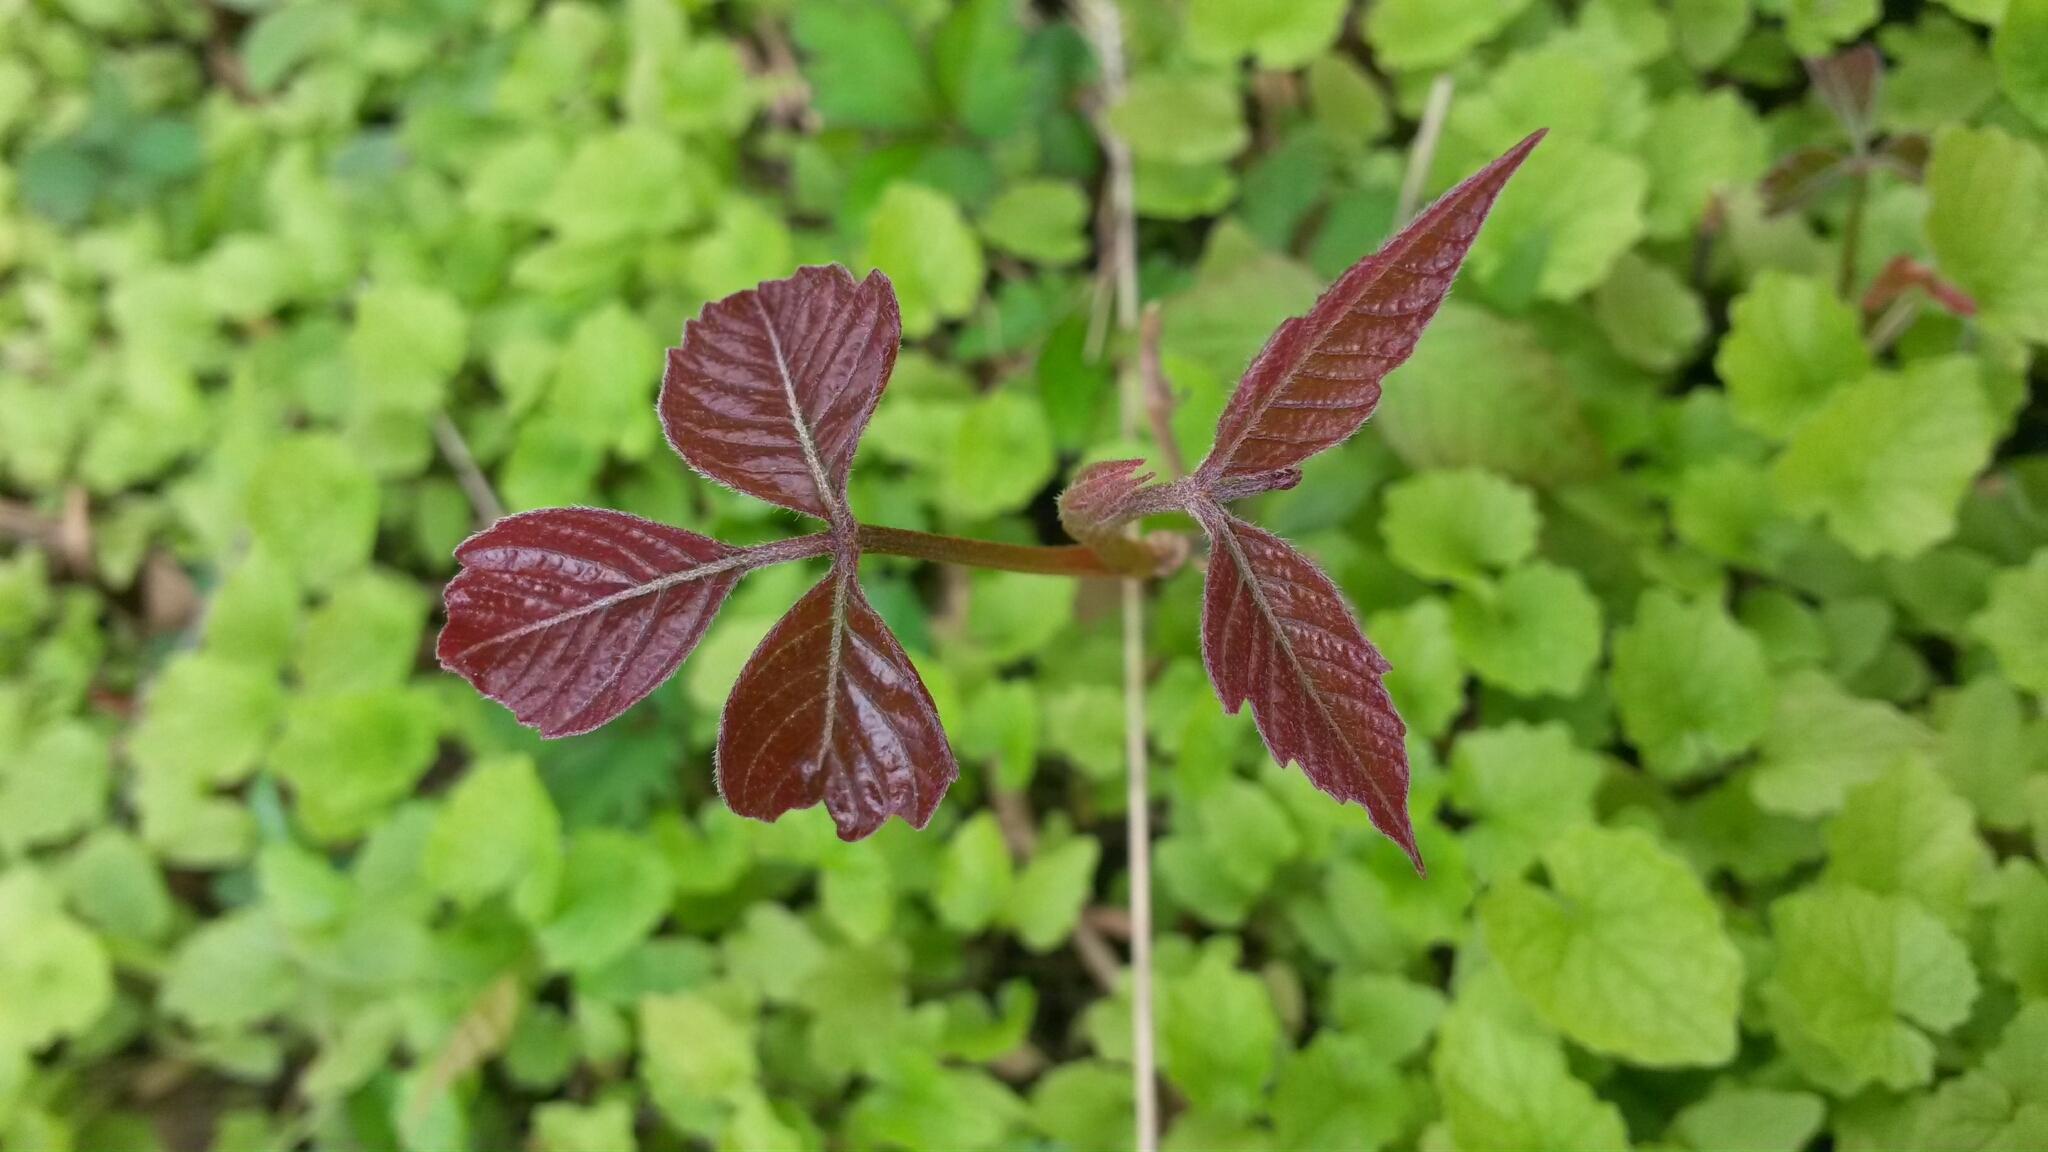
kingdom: Plantae
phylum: Tracheophyta
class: Magnoliopsida
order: Sapindales
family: Anacardiaceae
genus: Toxicodendron
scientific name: Toxicodendron radicans
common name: Poison ivy
